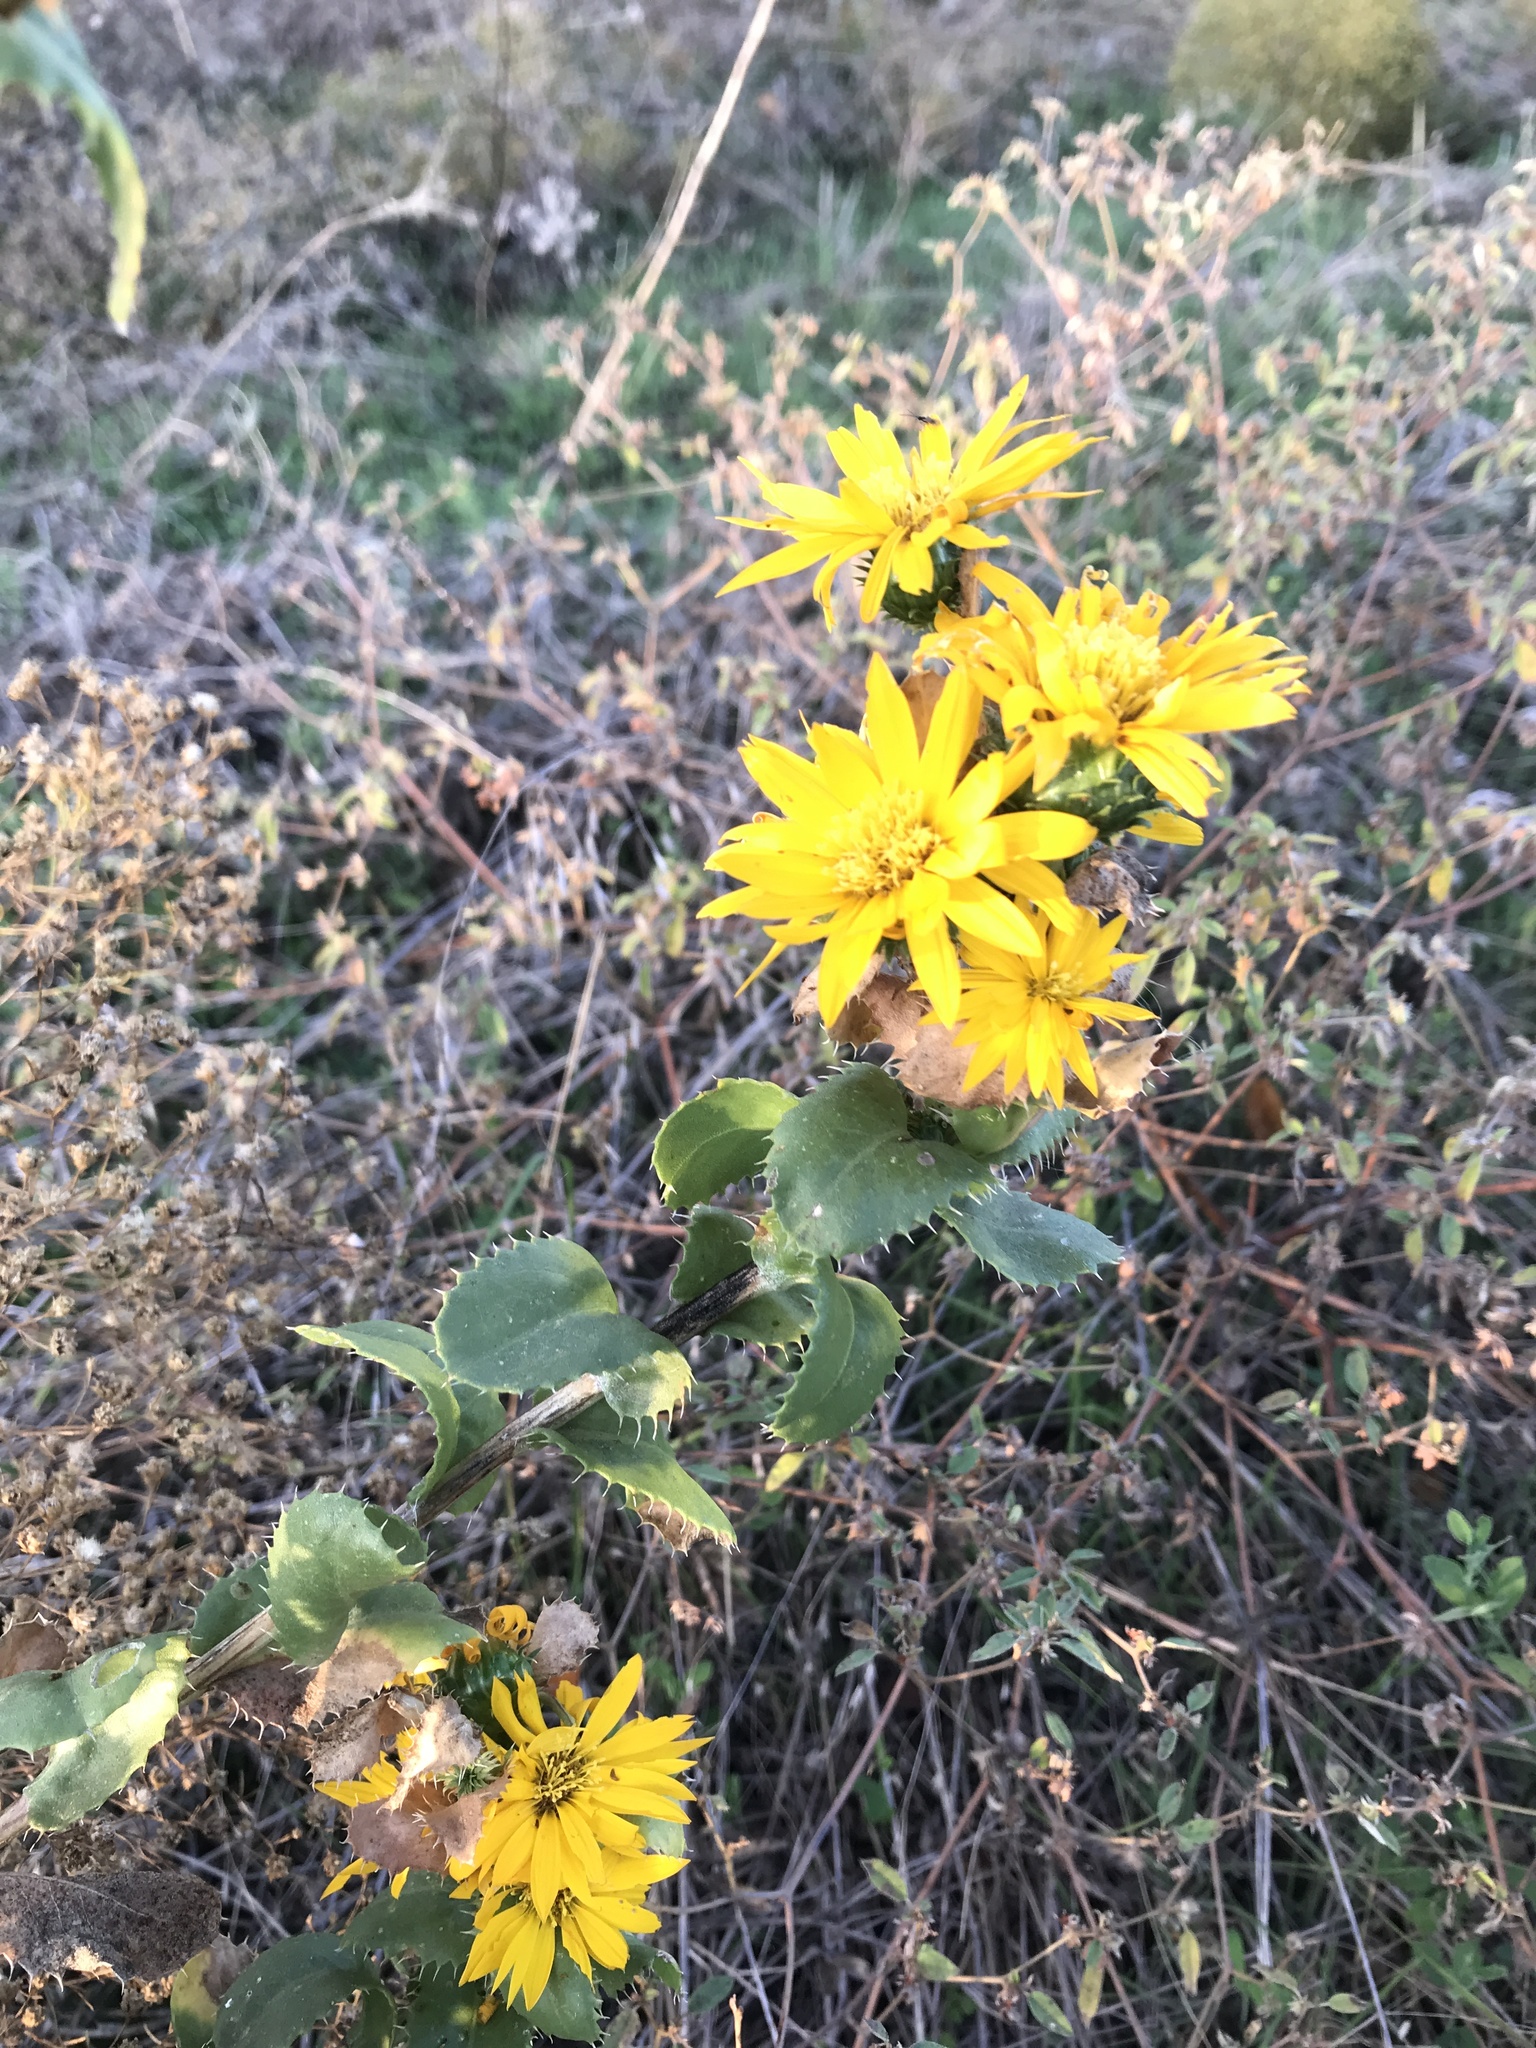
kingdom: Plantae
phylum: Tracheophyta
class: Magnoliopsida
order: Asterales
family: Asteraceae
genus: Grindelia
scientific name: Grindelia ciliata
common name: Goldenweed
